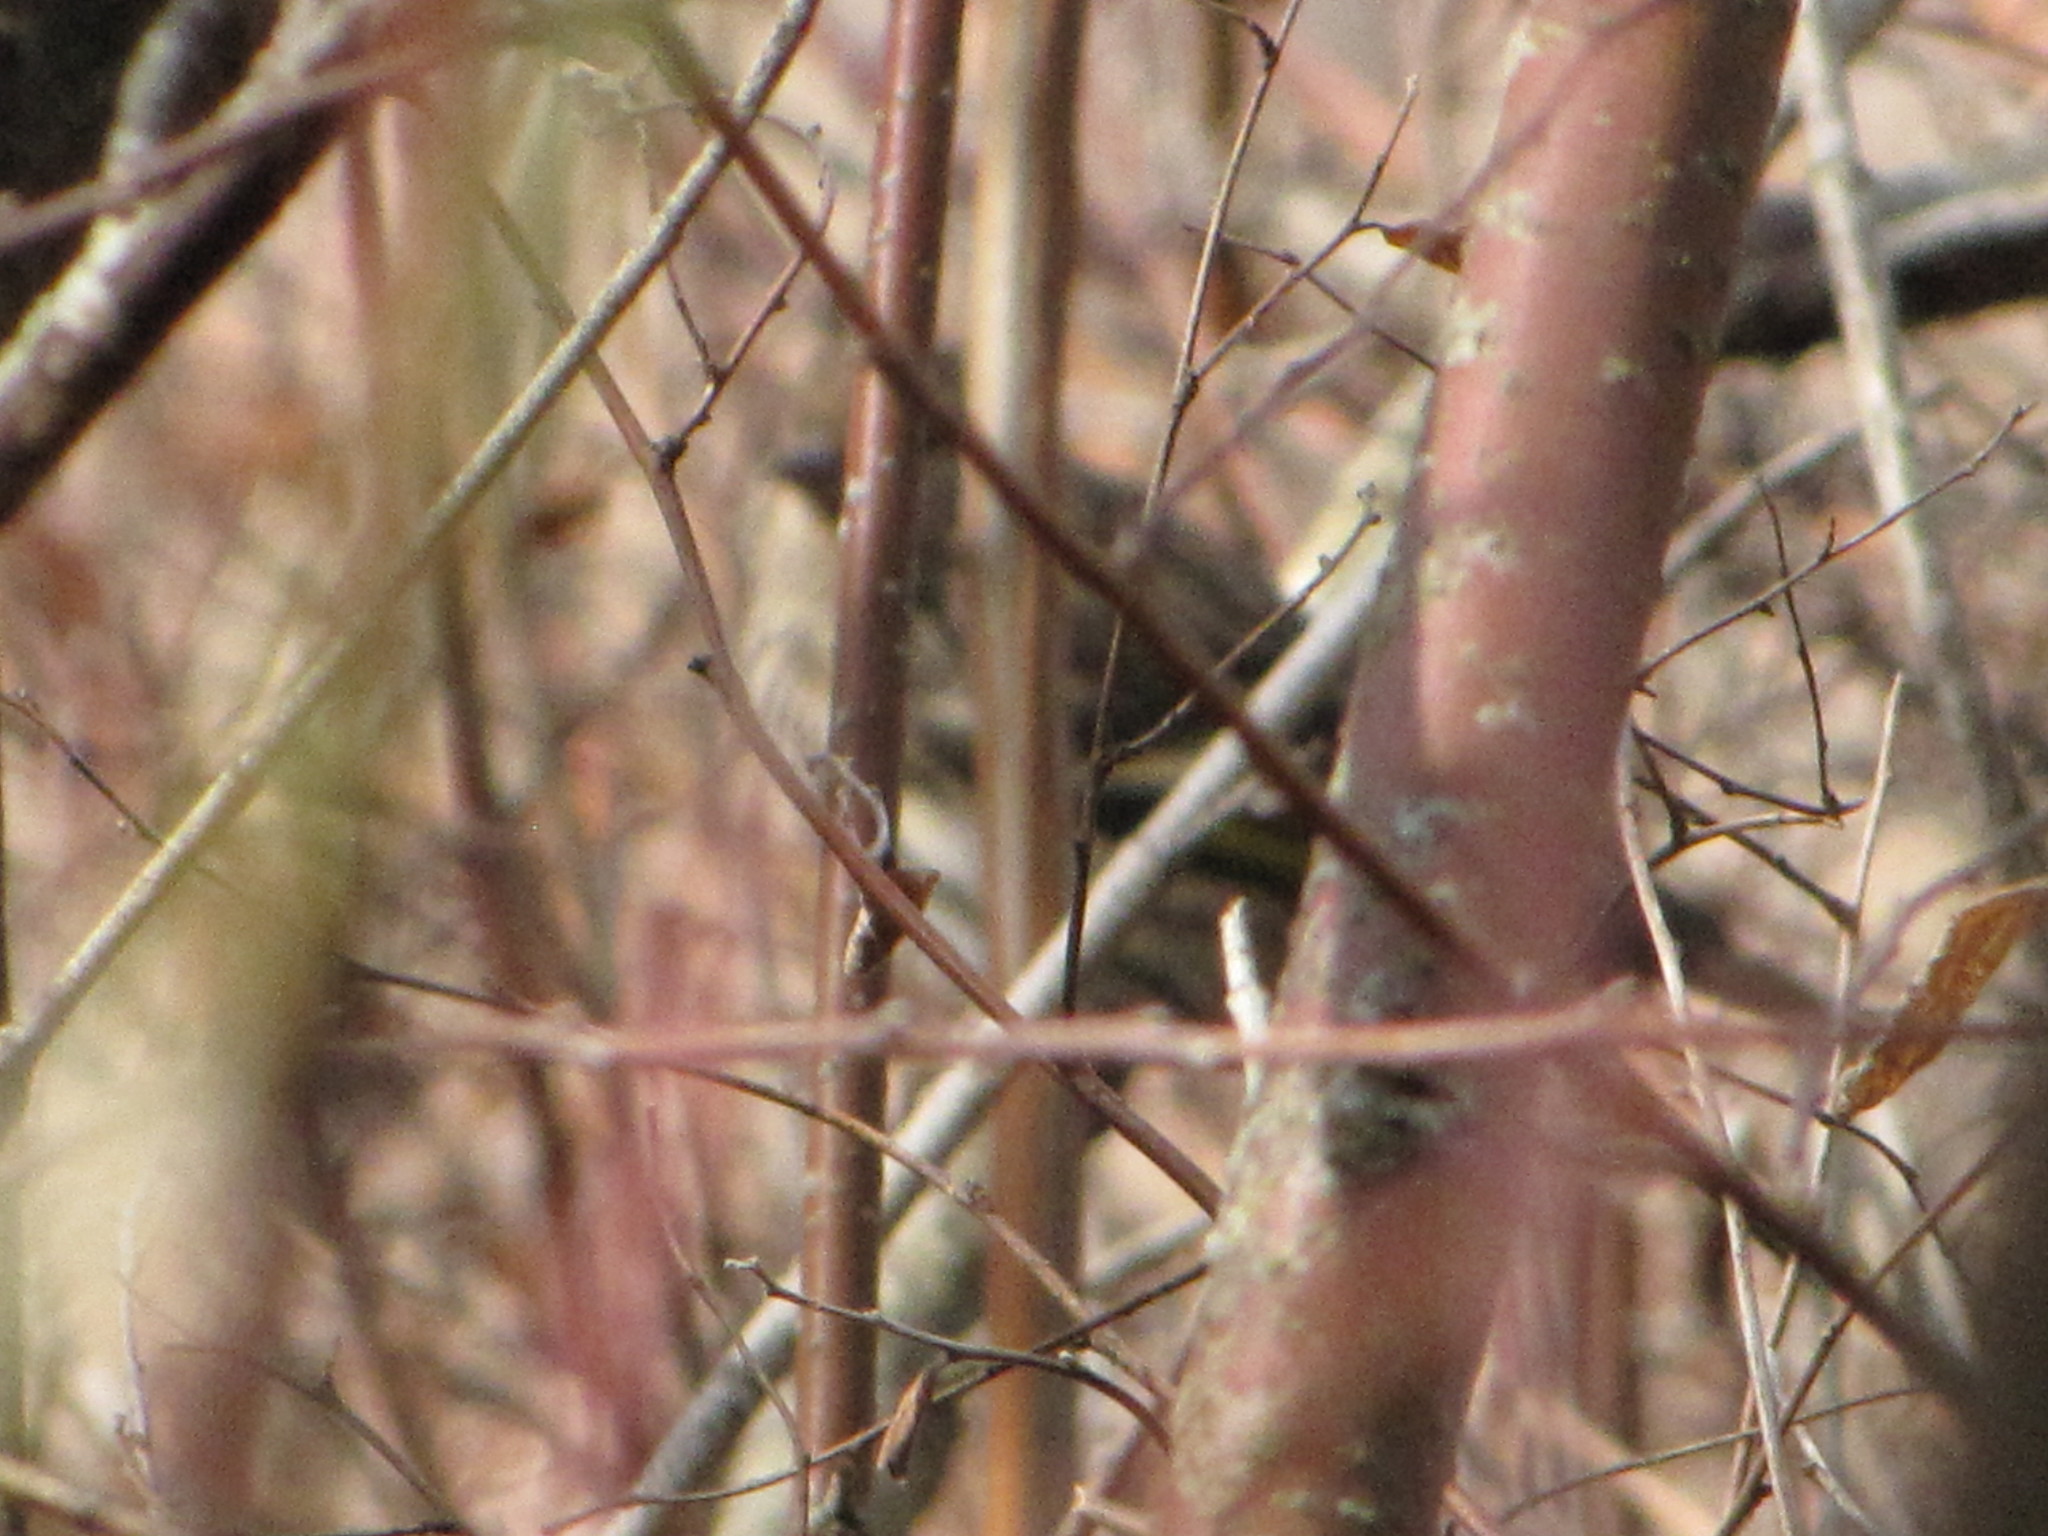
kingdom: Animalia
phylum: Chordata
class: Aves
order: Passeriformes
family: Fringillidae
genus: Spinus
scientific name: Spinus pinus
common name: Pine siskin
